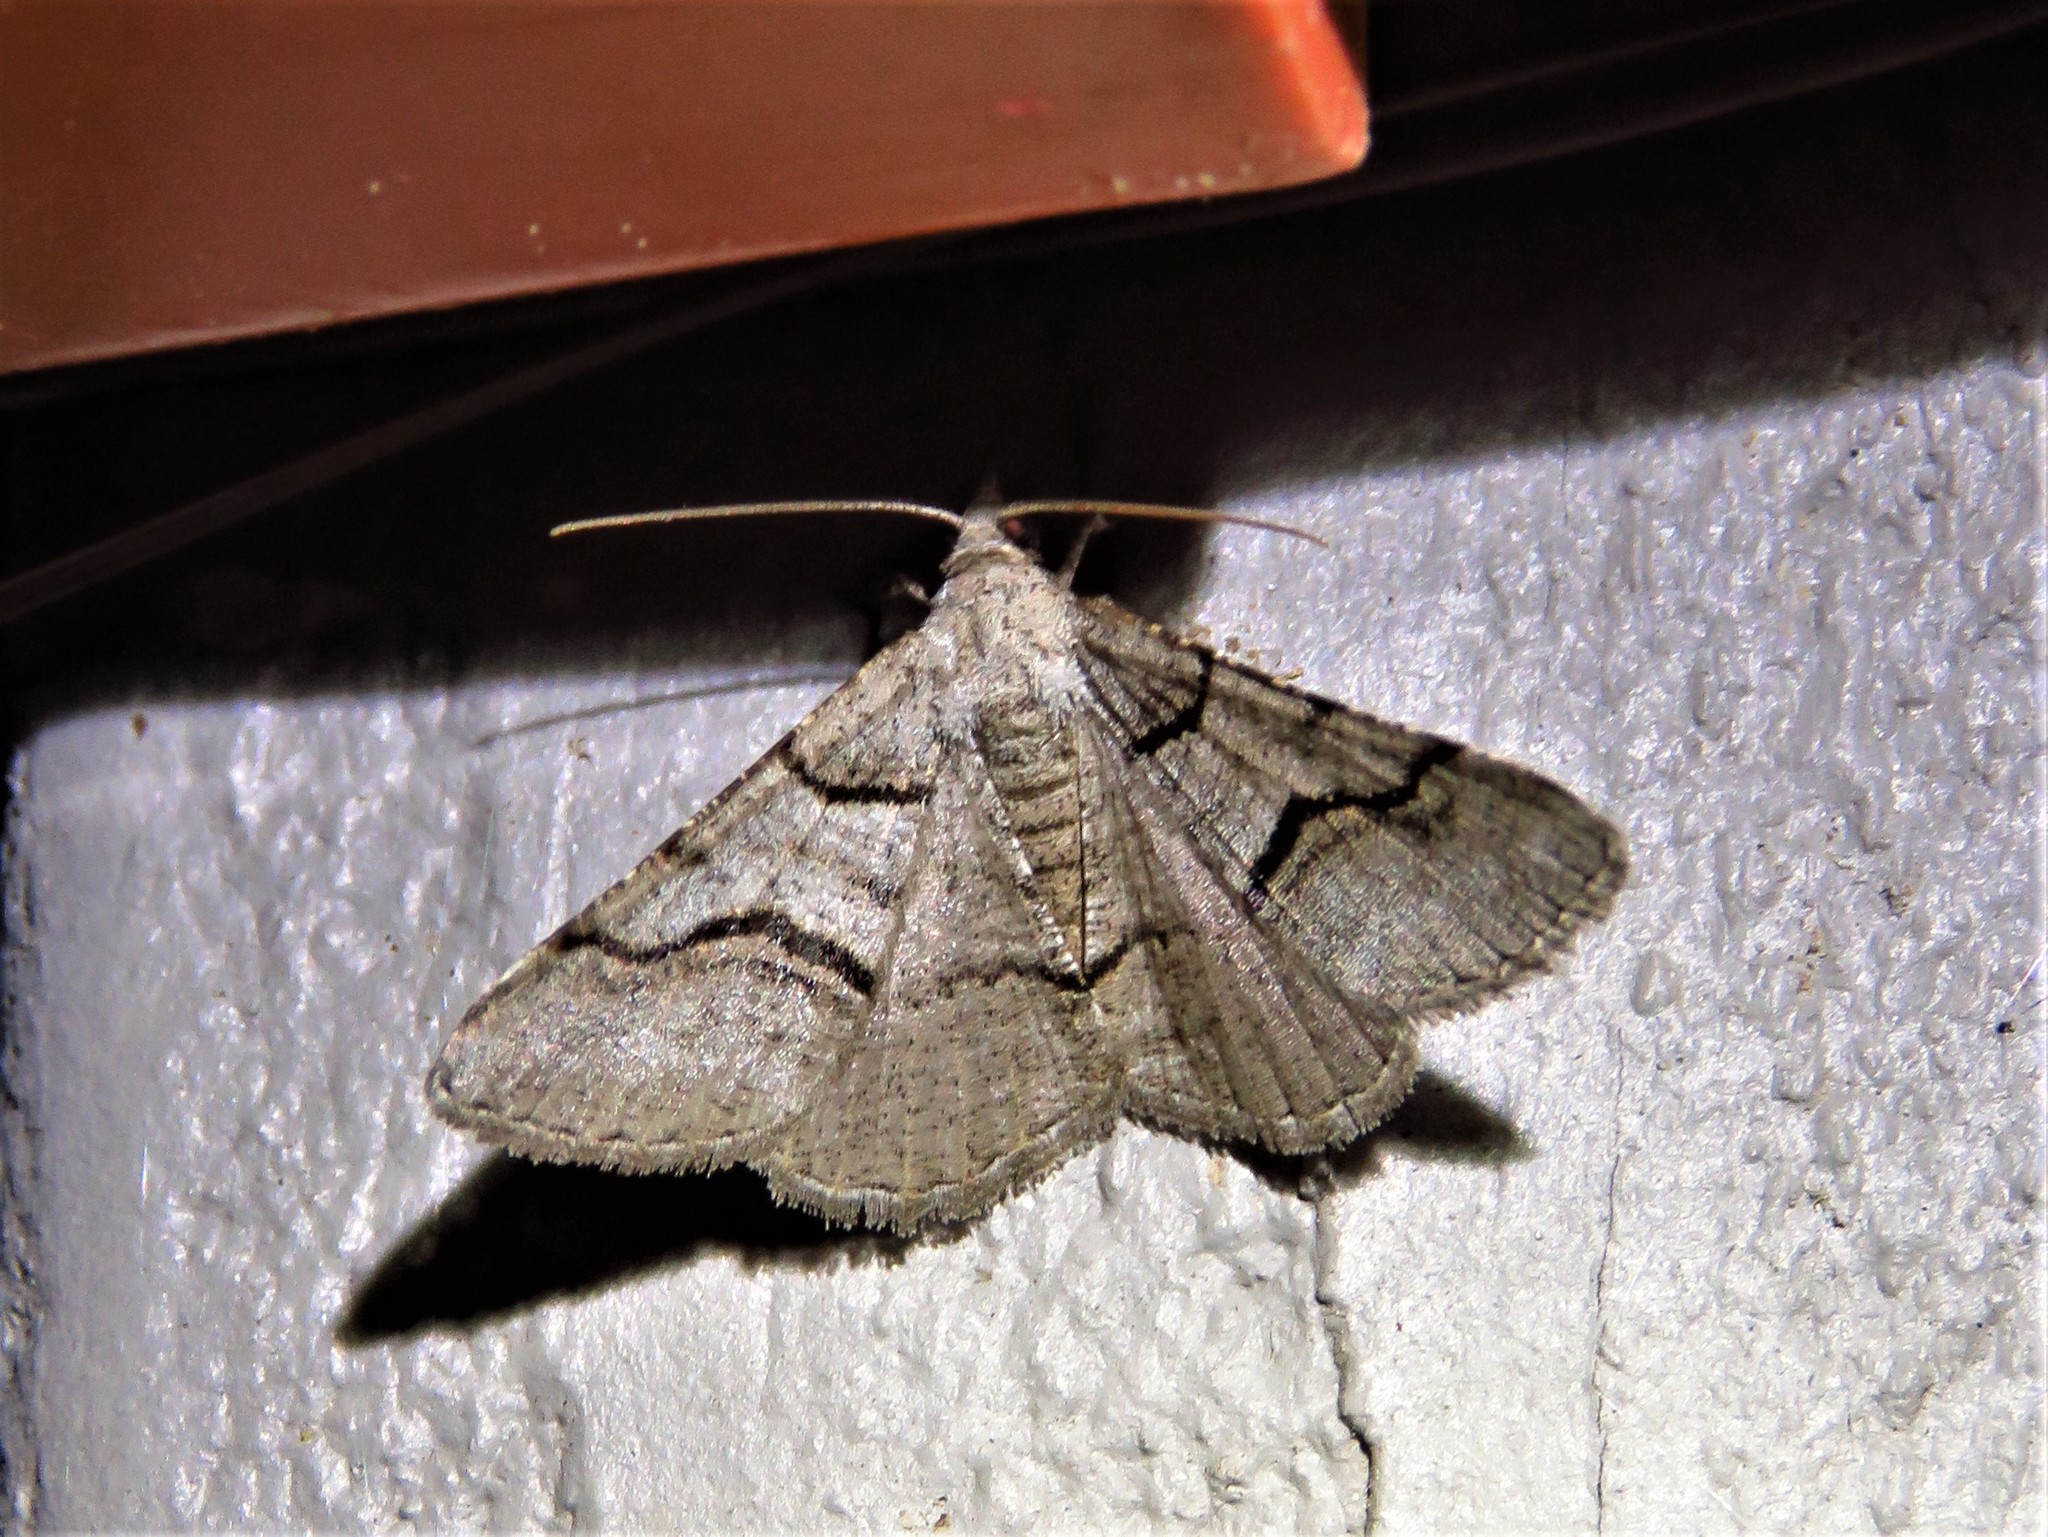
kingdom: Animalia
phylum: Arthropoda
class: Insecta
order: Lepidoptera
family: Geometridae
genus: Digrammia
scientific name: Digrammia continuata
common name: Curve-lined angle
